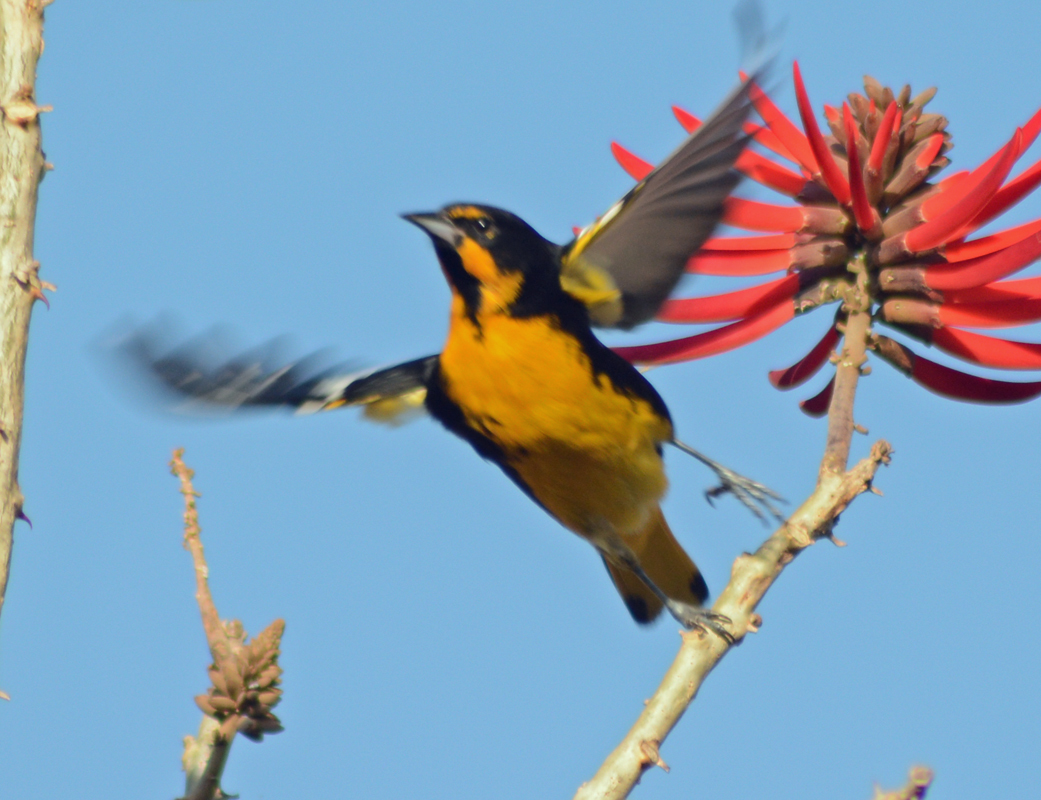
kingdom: Animalia
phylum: Chordata
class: Aves
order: Passeriformes
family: Icteridae
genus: Icterus
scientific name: Icterus abeillei
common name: Black-backed oriole
